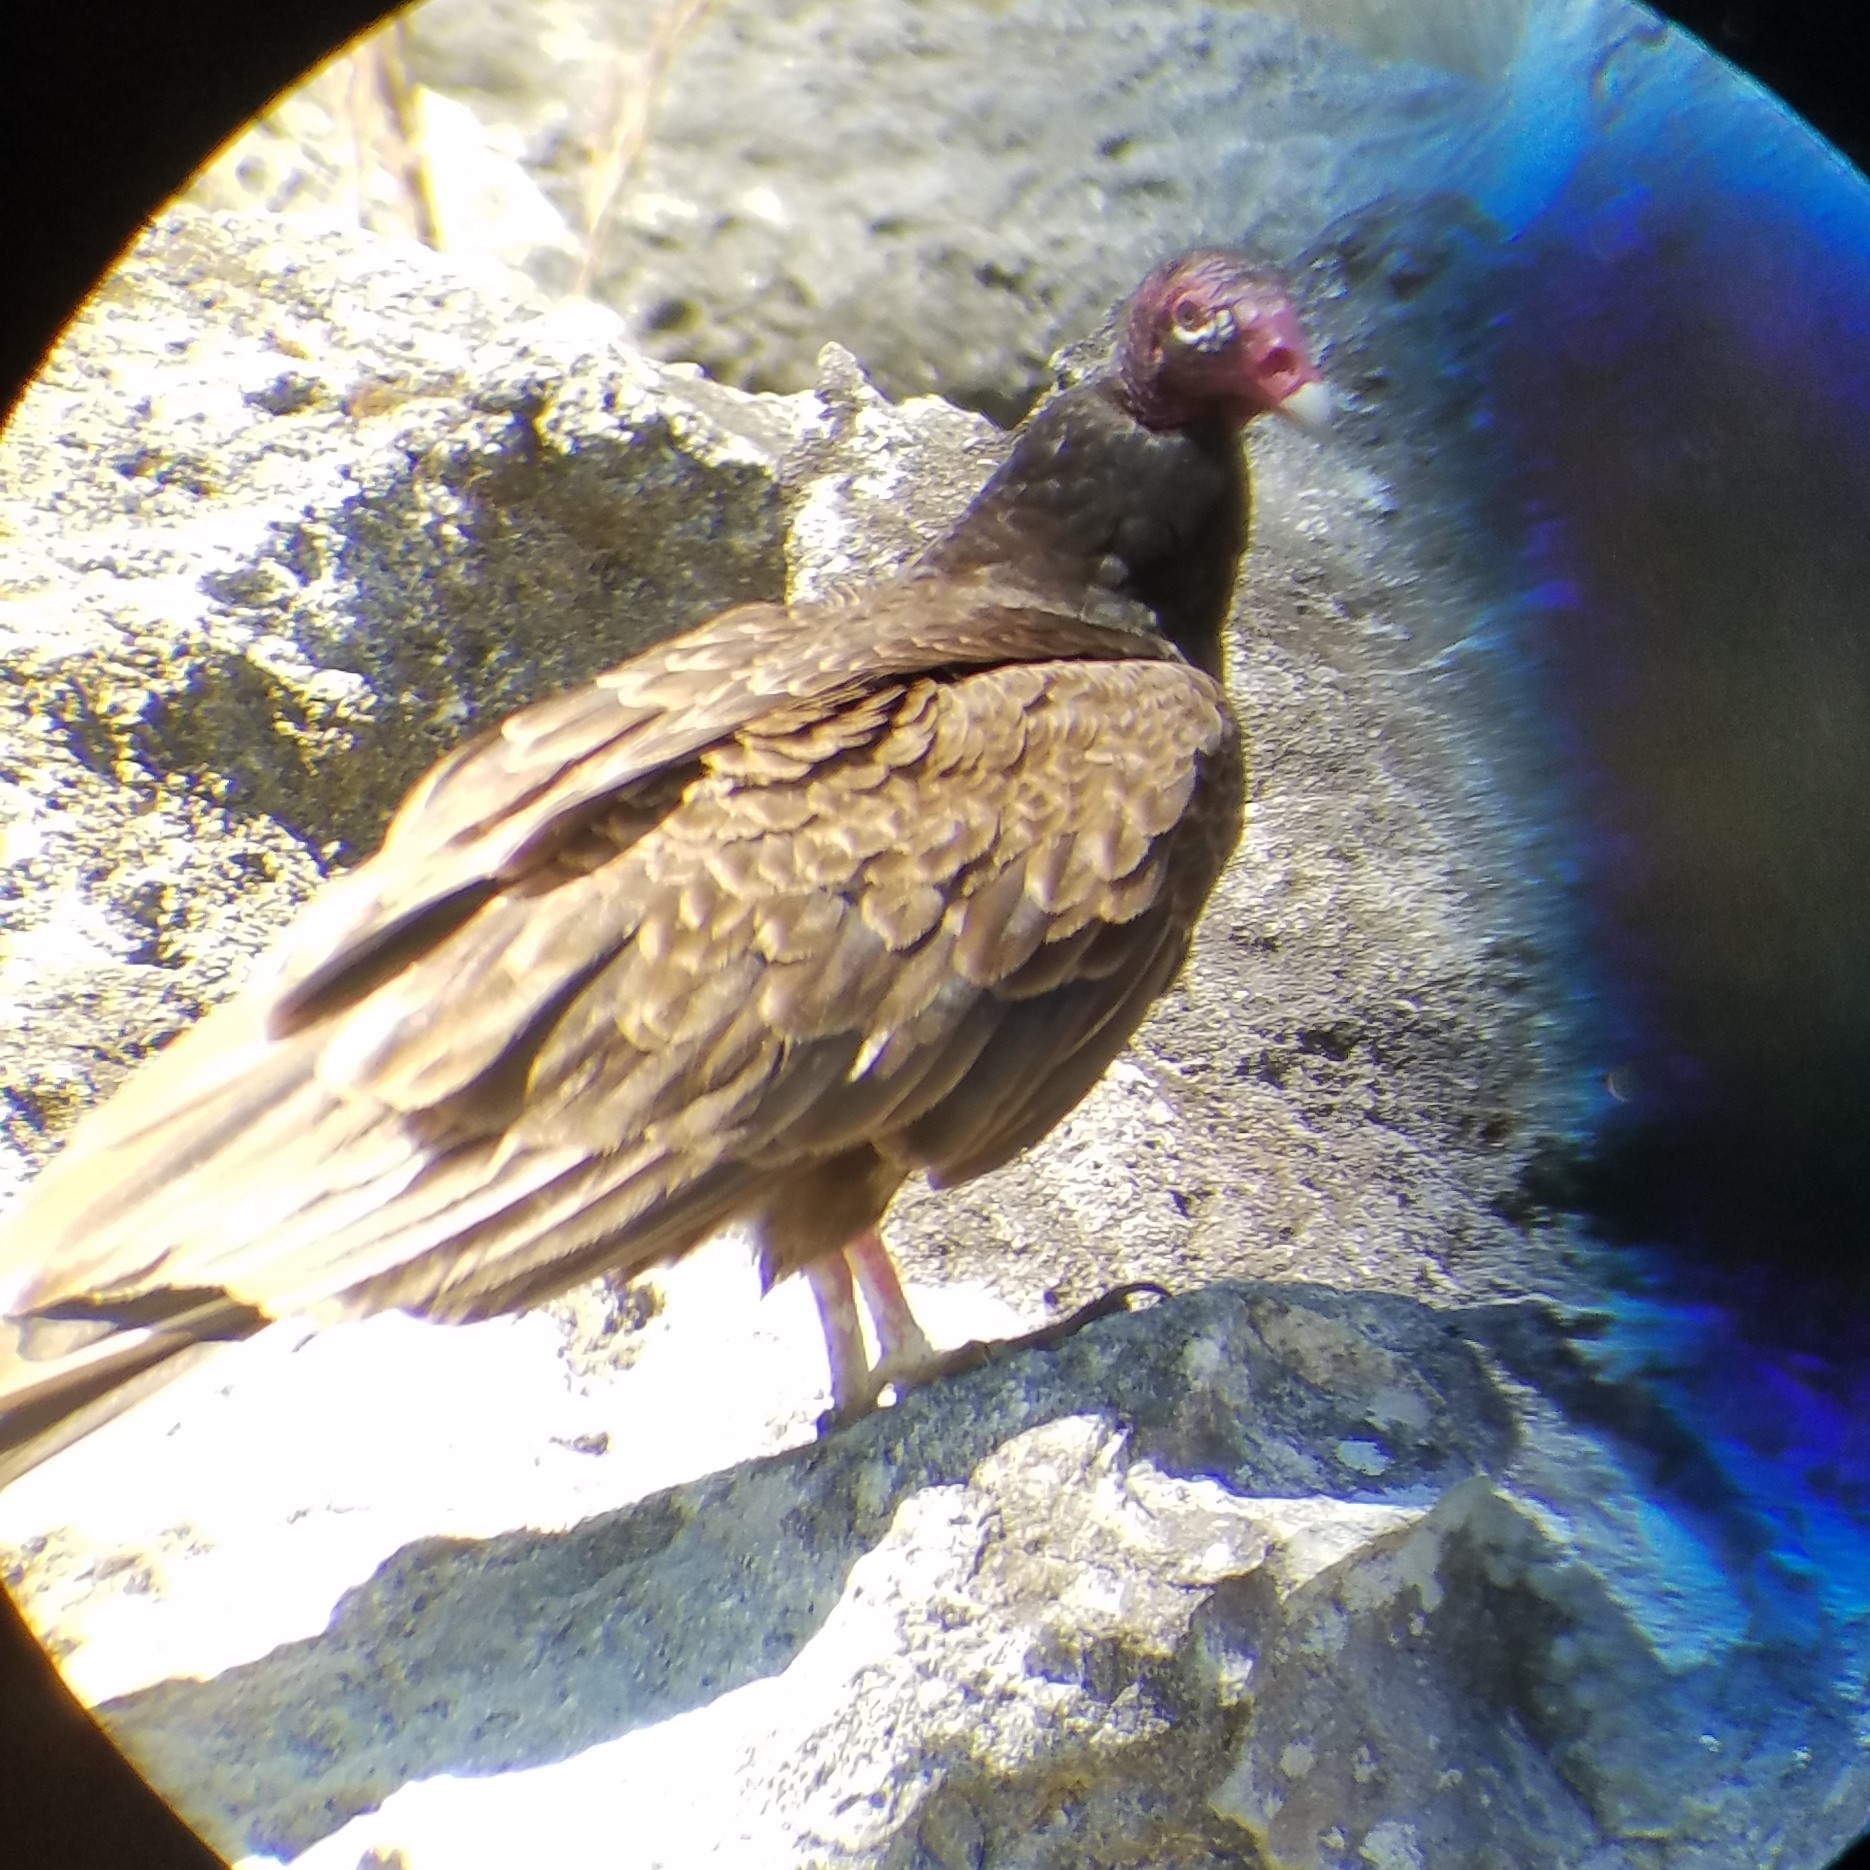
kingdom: Animalia
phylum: Chordata
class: Aves
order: Accipitriformes
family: Cathartidae
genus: Cathartes
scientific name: Cathartes aura
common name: Turkey vulture
